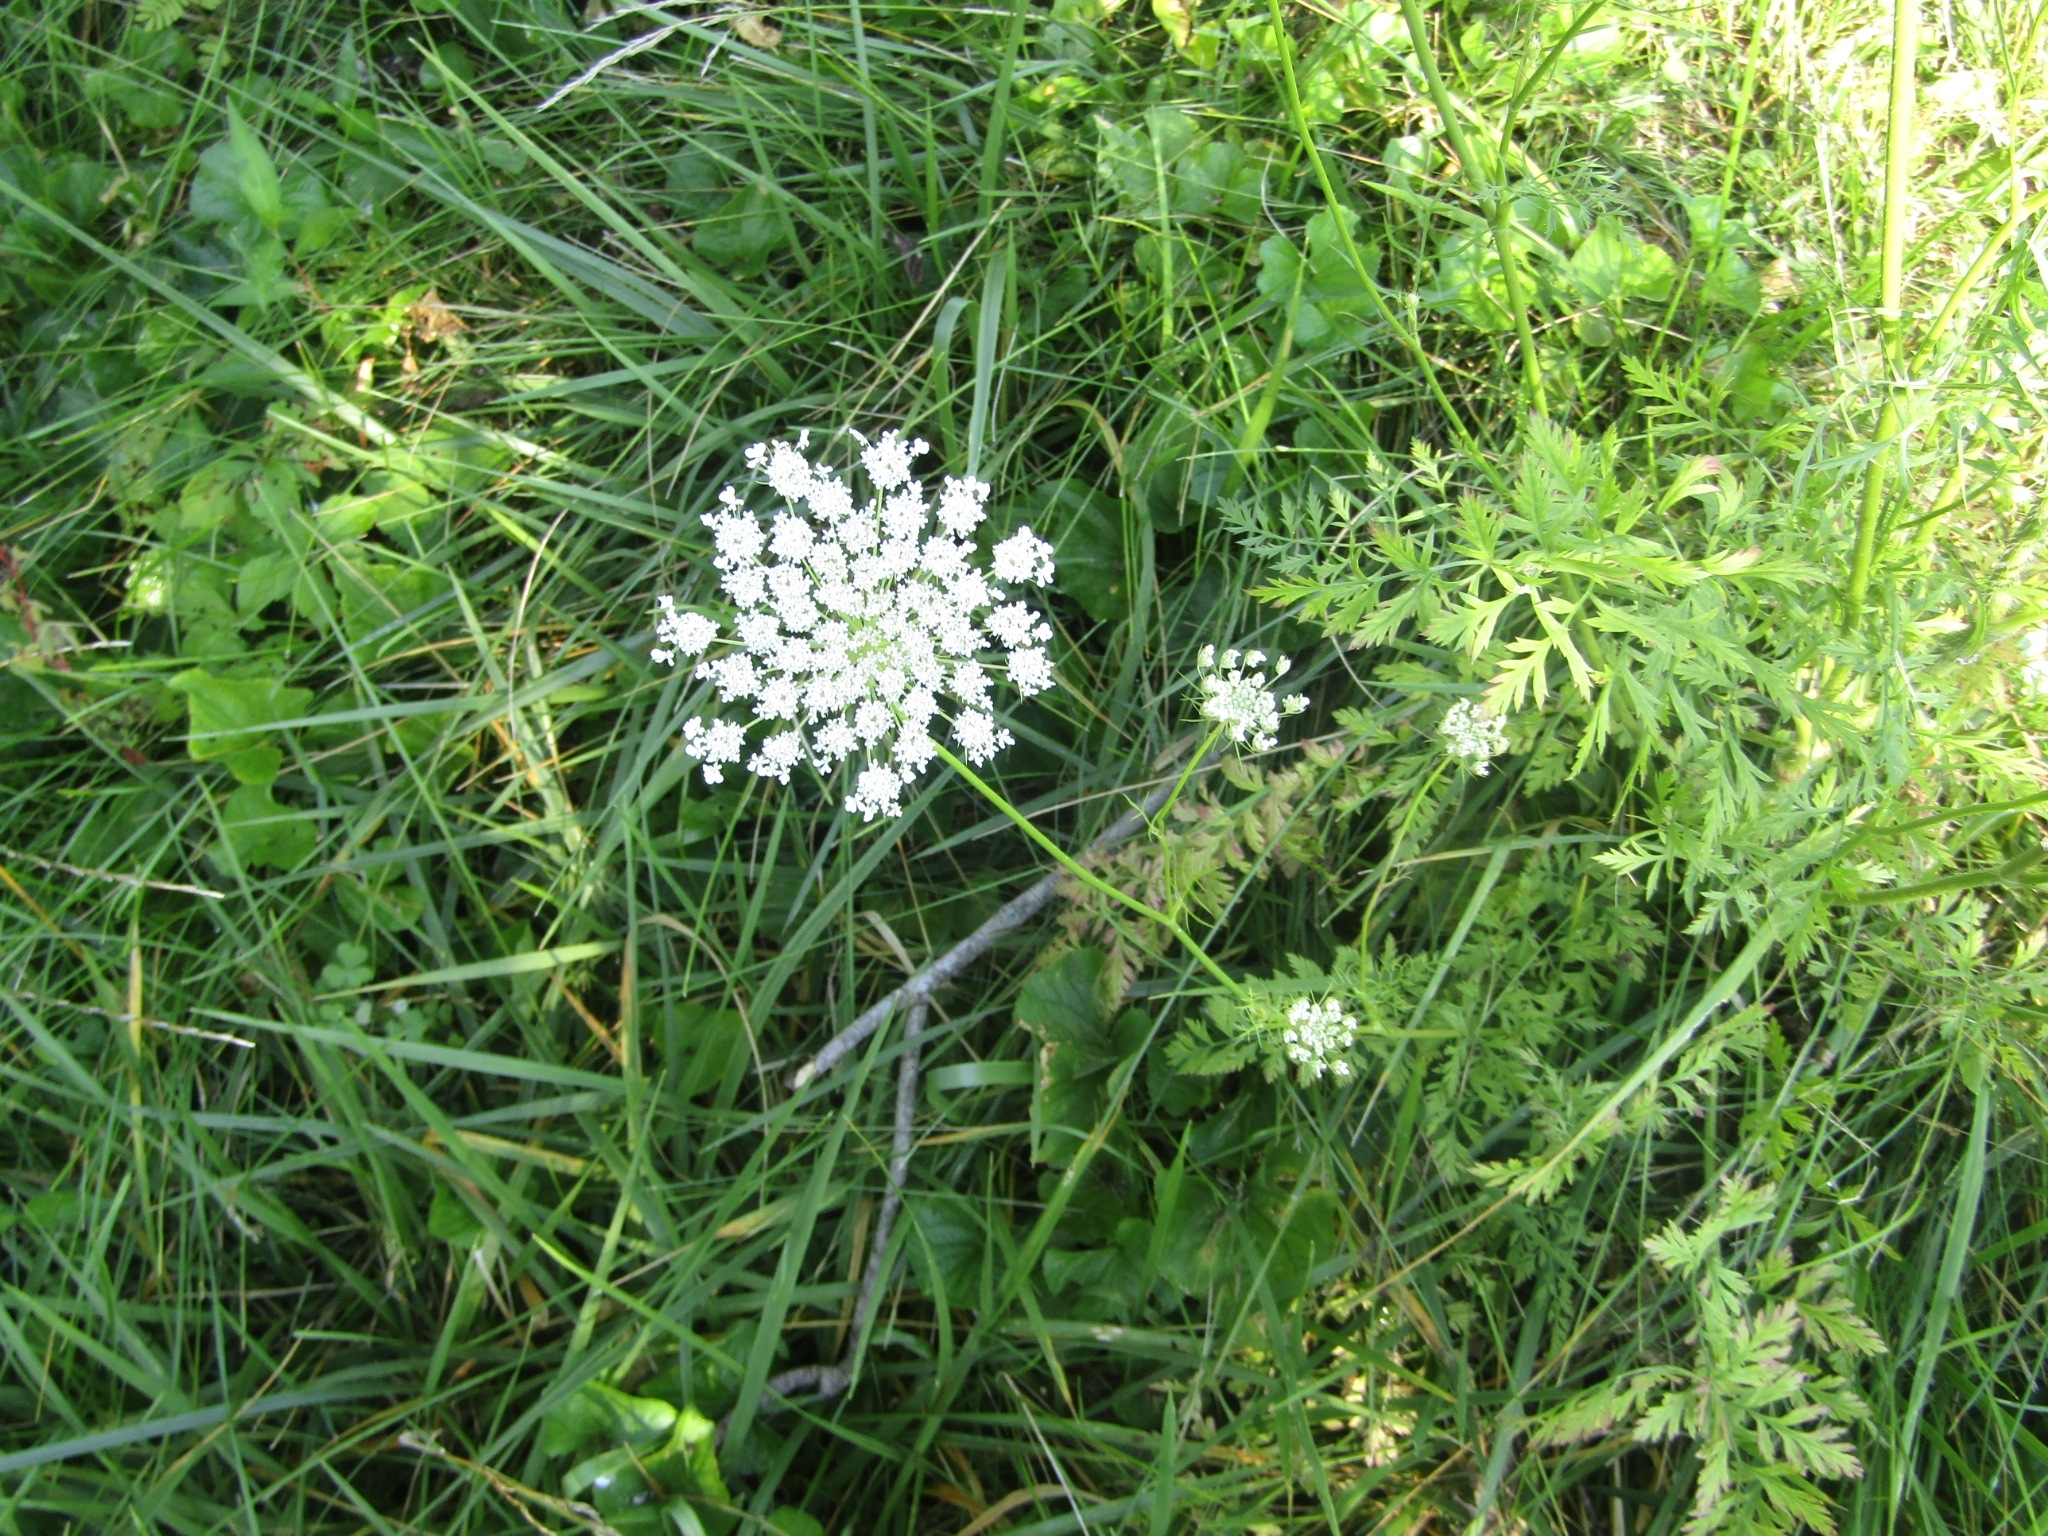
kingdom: Plantae
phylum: Tracheophyta
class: Magnoliopsida
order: Apiales
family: Apiaceae
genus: Daucus
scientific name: Daucus carota
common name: Wild carrot
